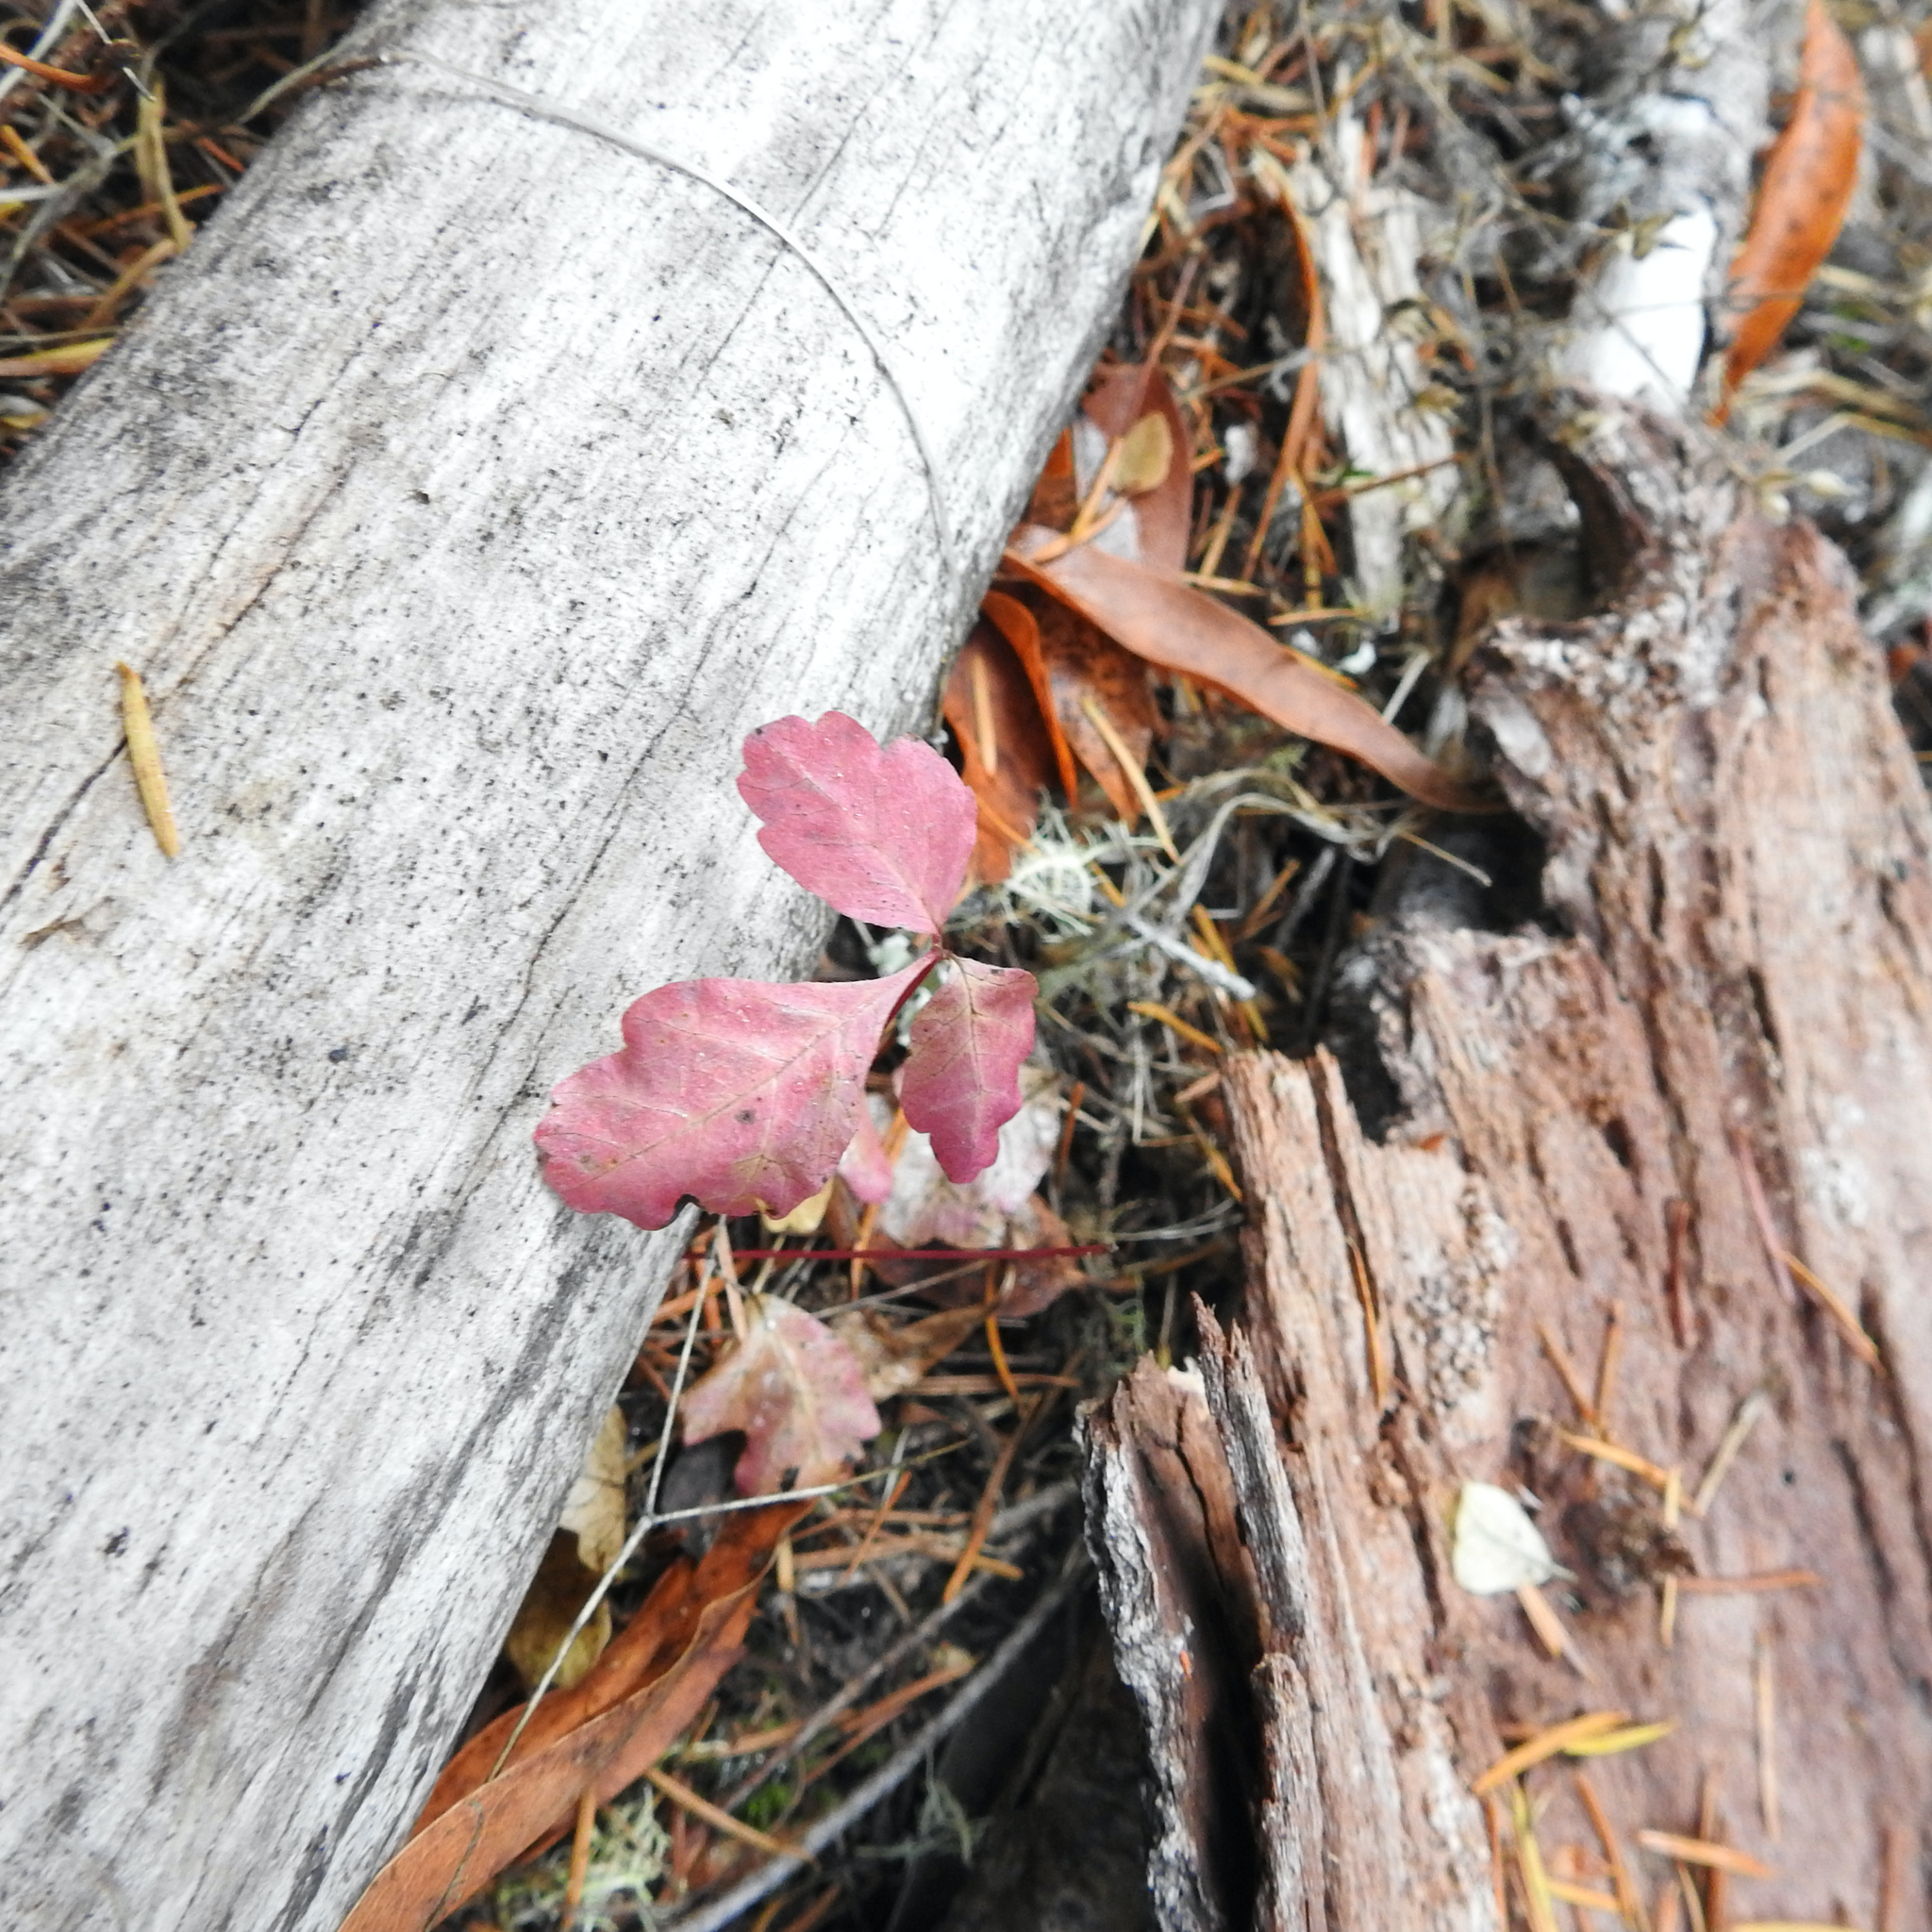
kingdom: Plantae
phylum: Tracheophyta
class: Magnoliopsida
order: Sapindales
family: Anacardiaceae
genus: Toxicodendron
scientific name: Toxicodendron diversilobum
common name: Pacific poison-oak
